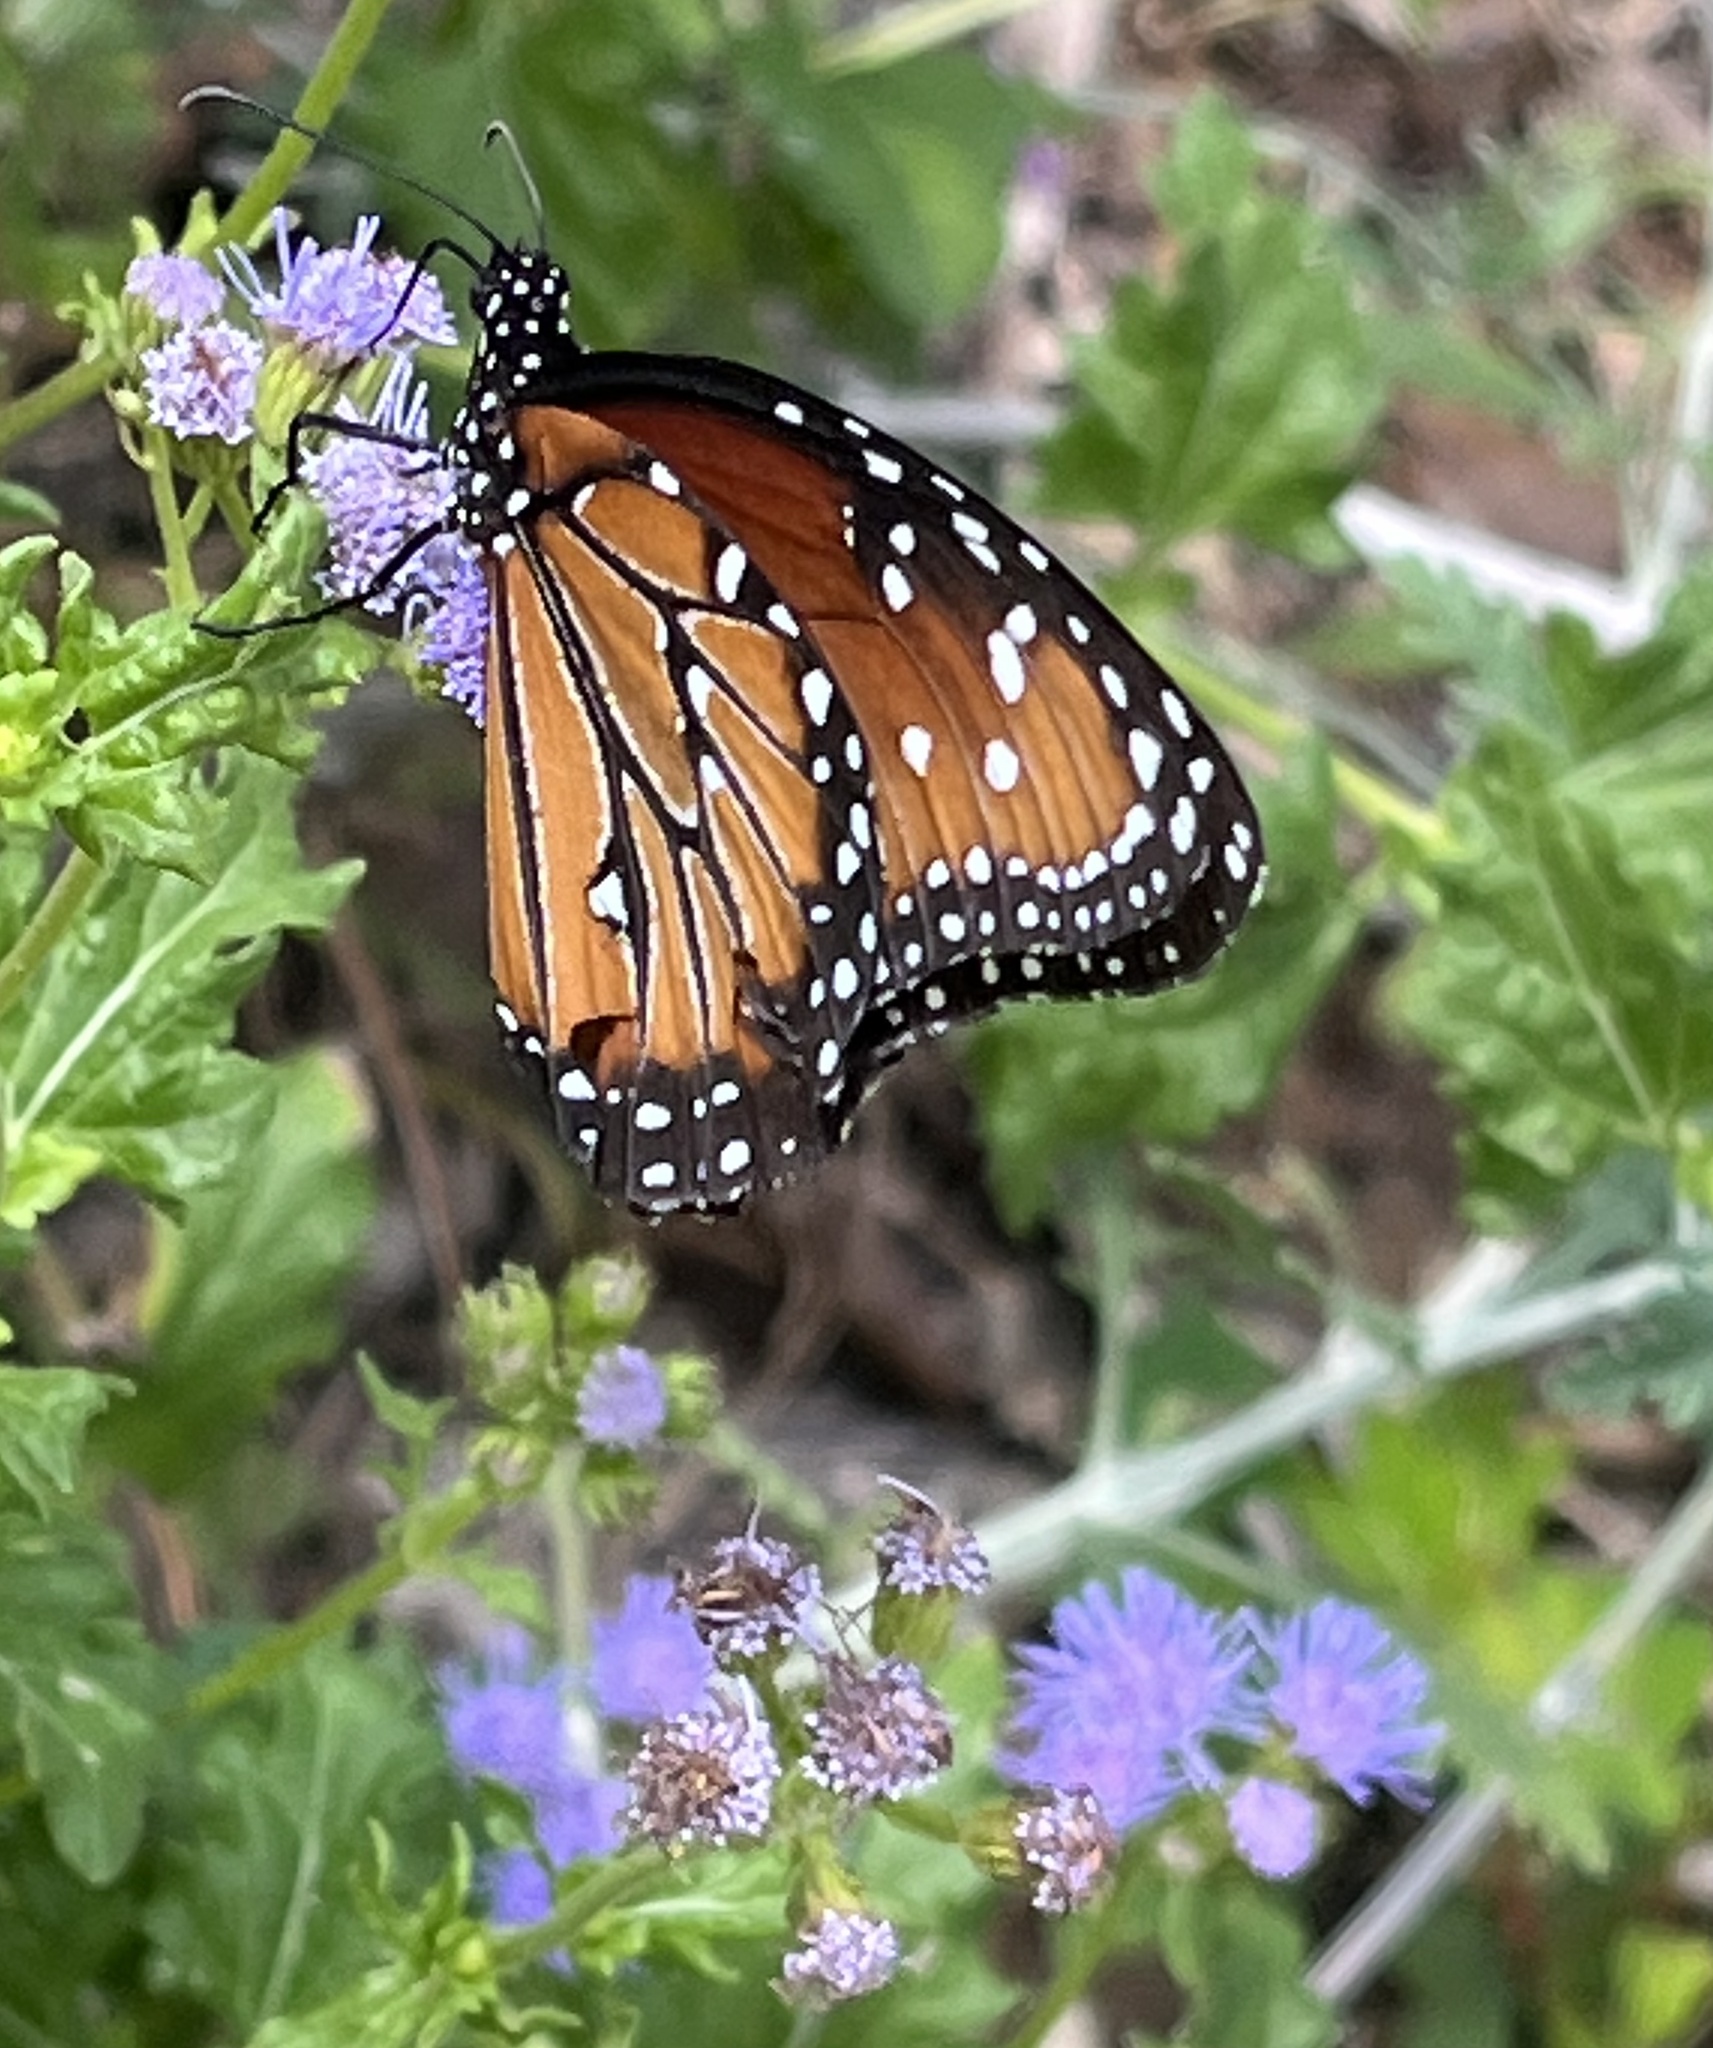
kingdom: Animalia
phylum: Arthropoda
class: Insecta
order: Lepidoptera
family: Nymphalidae
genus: Danaus
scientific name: Danaus gilippus
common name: Queen
